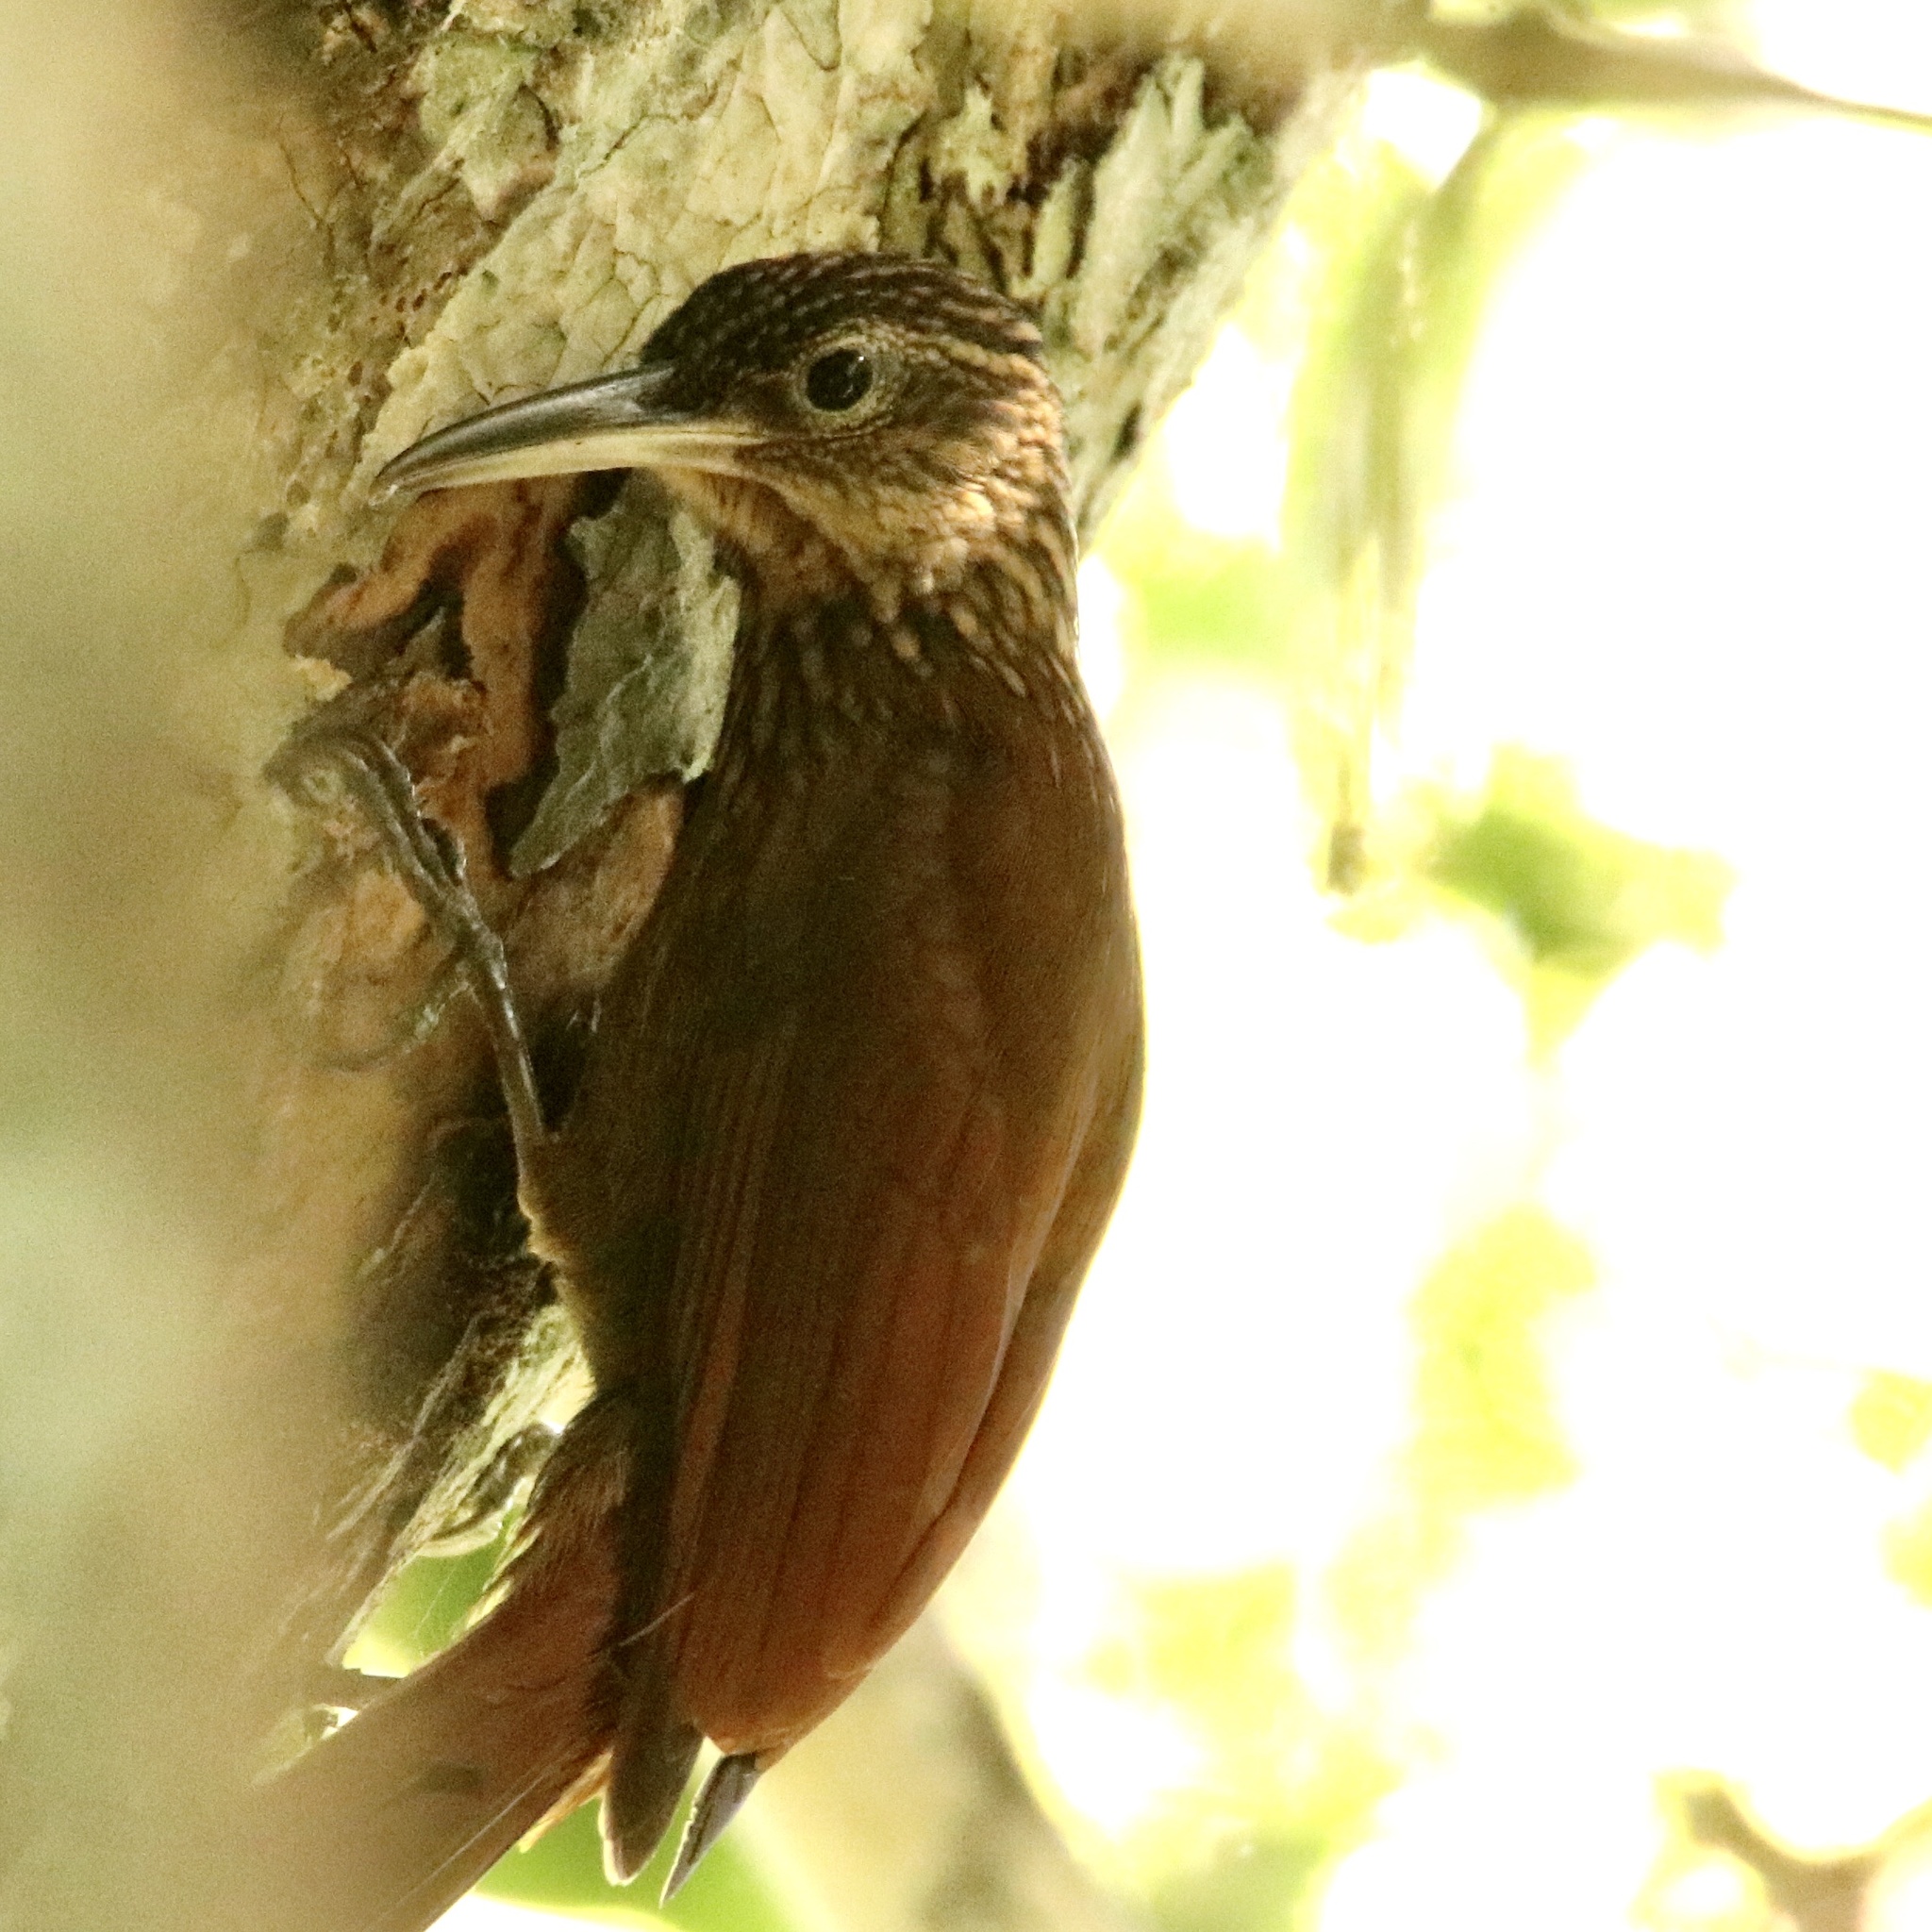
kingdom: Animalia
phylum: Chordata
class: Aves
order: Passeriformes
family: Furnariidae
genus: Xiphorhynchus
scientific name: Xiphorhynchus susurrans
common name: Cocoa woodcreeper
